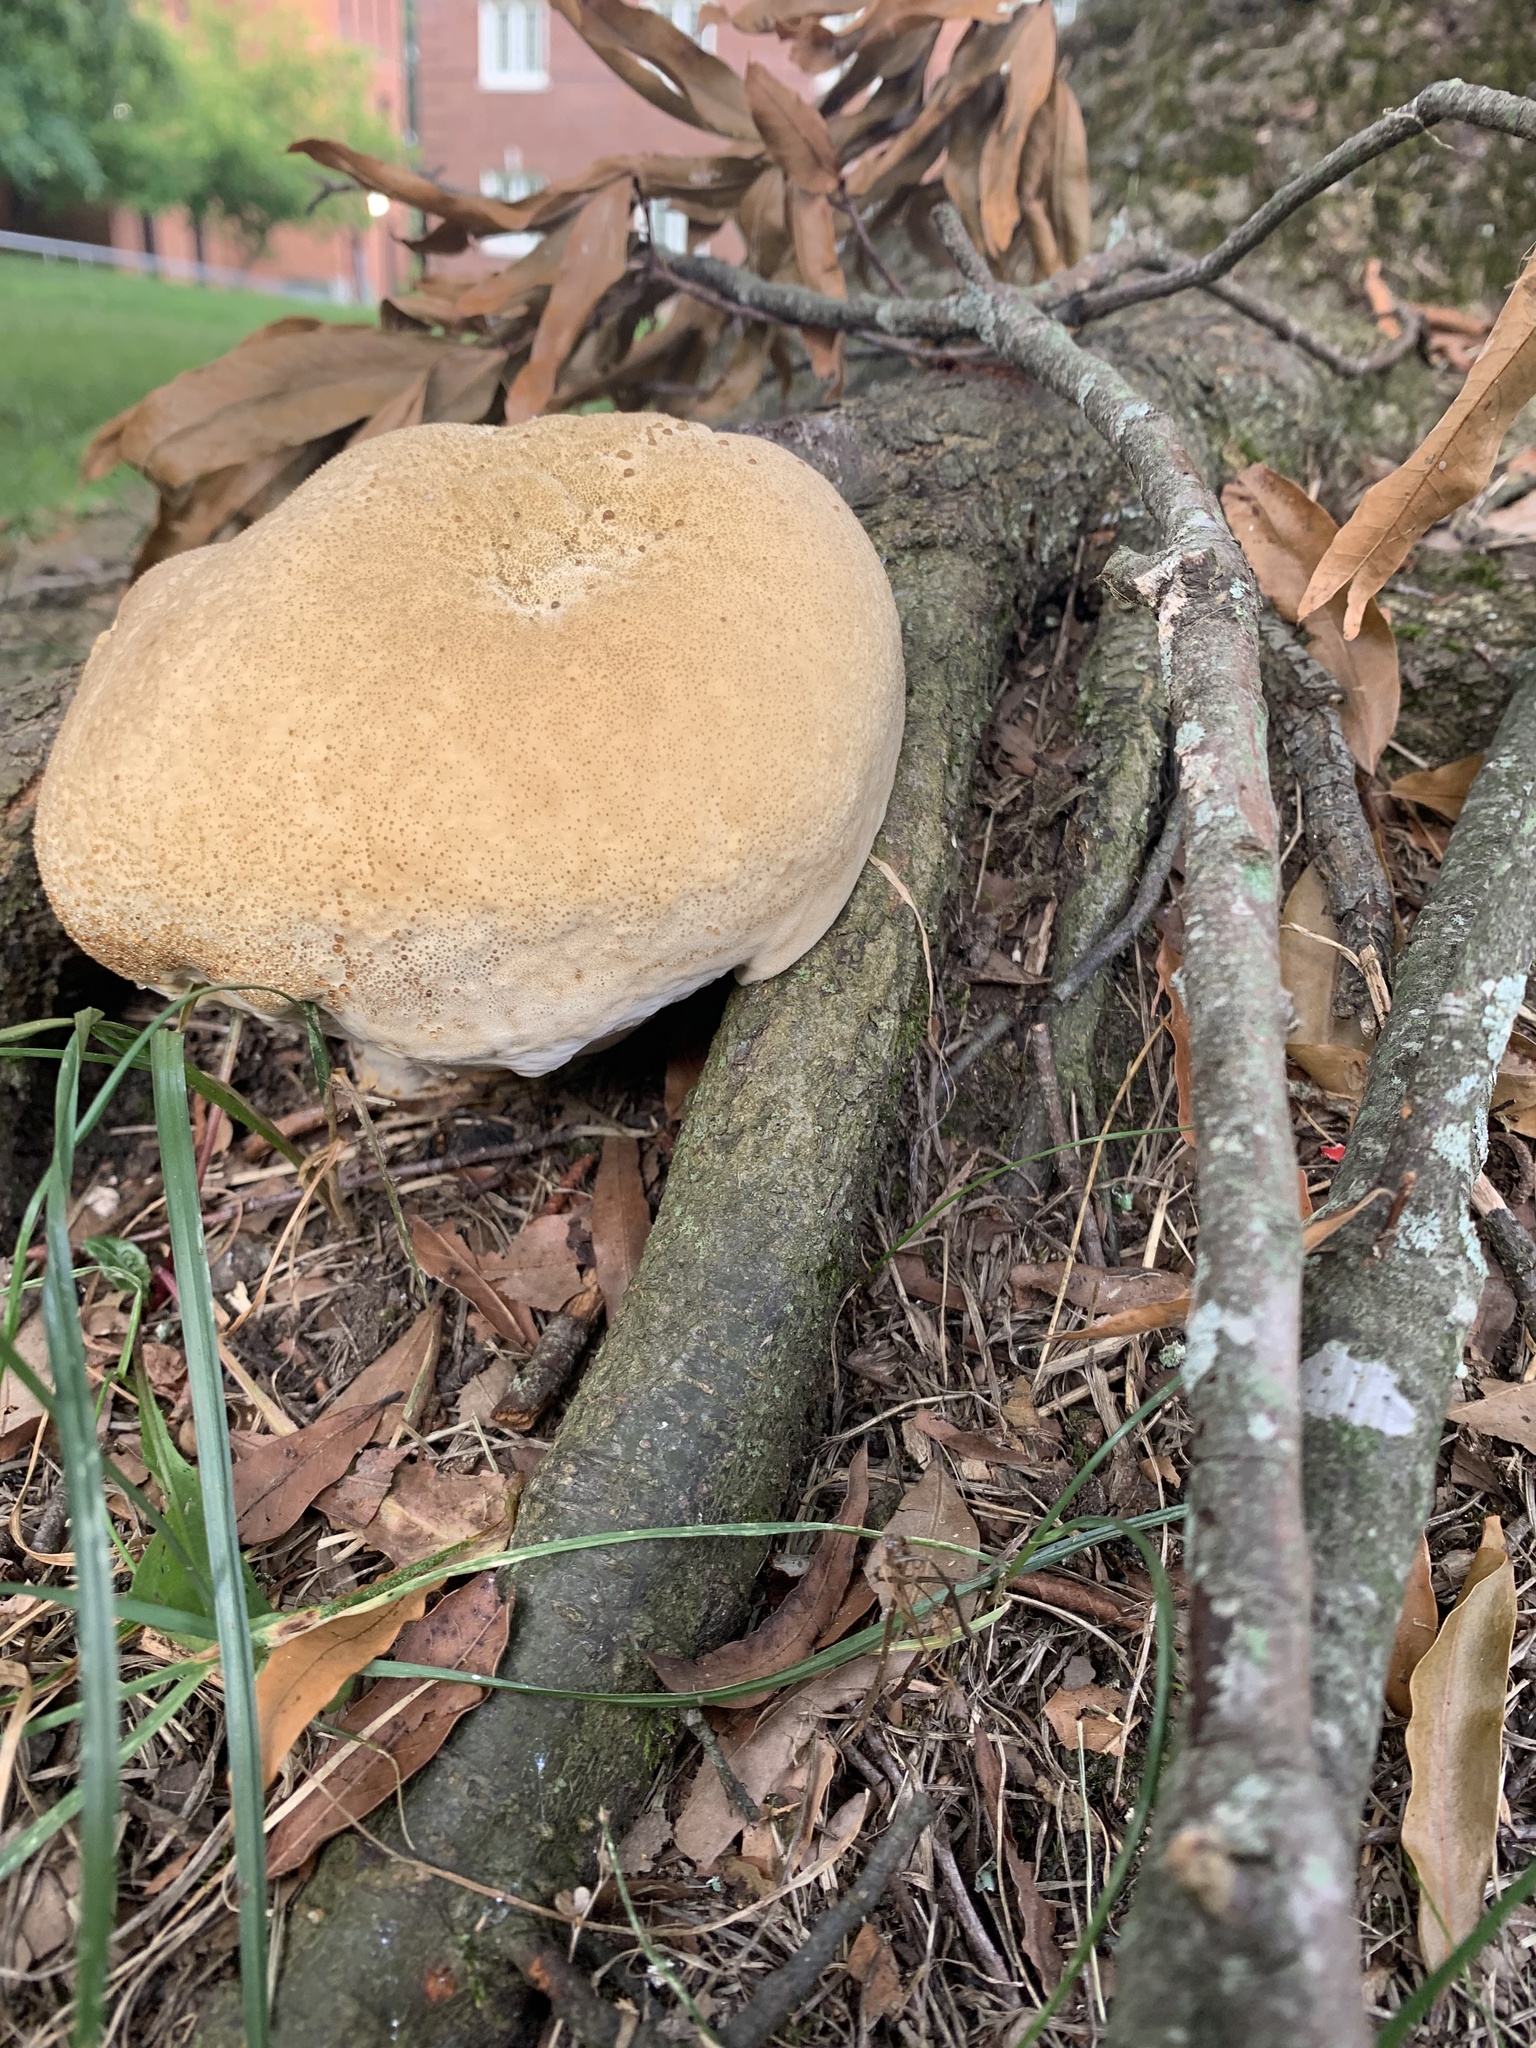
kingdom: Fungi
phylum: Basidiomycota
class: Agaricomycetes
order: Hymenochaetales
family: Hymenochaetaceae
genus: Pseudoinonotus
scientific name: Pseudoinonotus dryadeus
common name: Oak bracket
